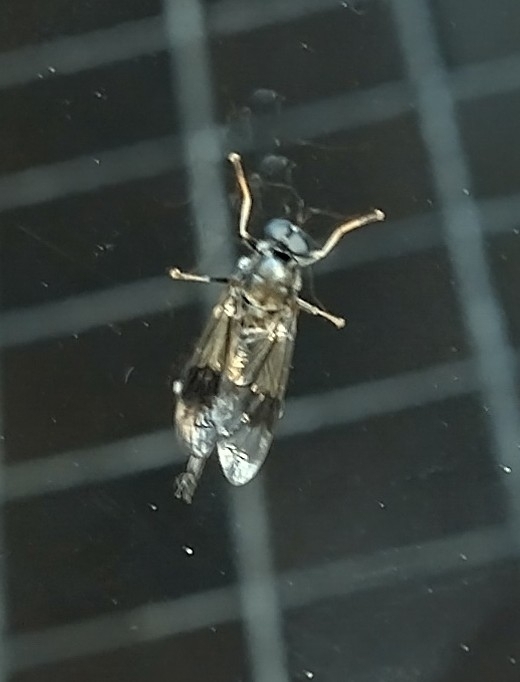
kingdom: Animalia
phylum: Arthropoda
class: Insecta
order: Diptera
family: Stratiomyidae
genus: Exaireta
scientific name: Exaireta spinigera
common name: Blue soldier fly
